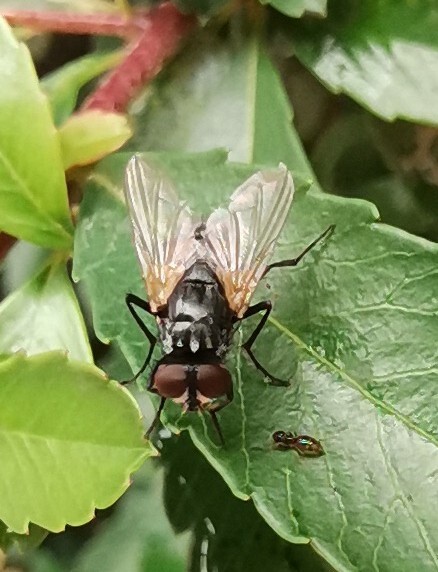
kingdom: Animalia
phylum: Arthropoda
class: Insecta
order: Diptera
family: Muscidae
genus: Musca
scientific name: Musca domestica
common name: House fly
